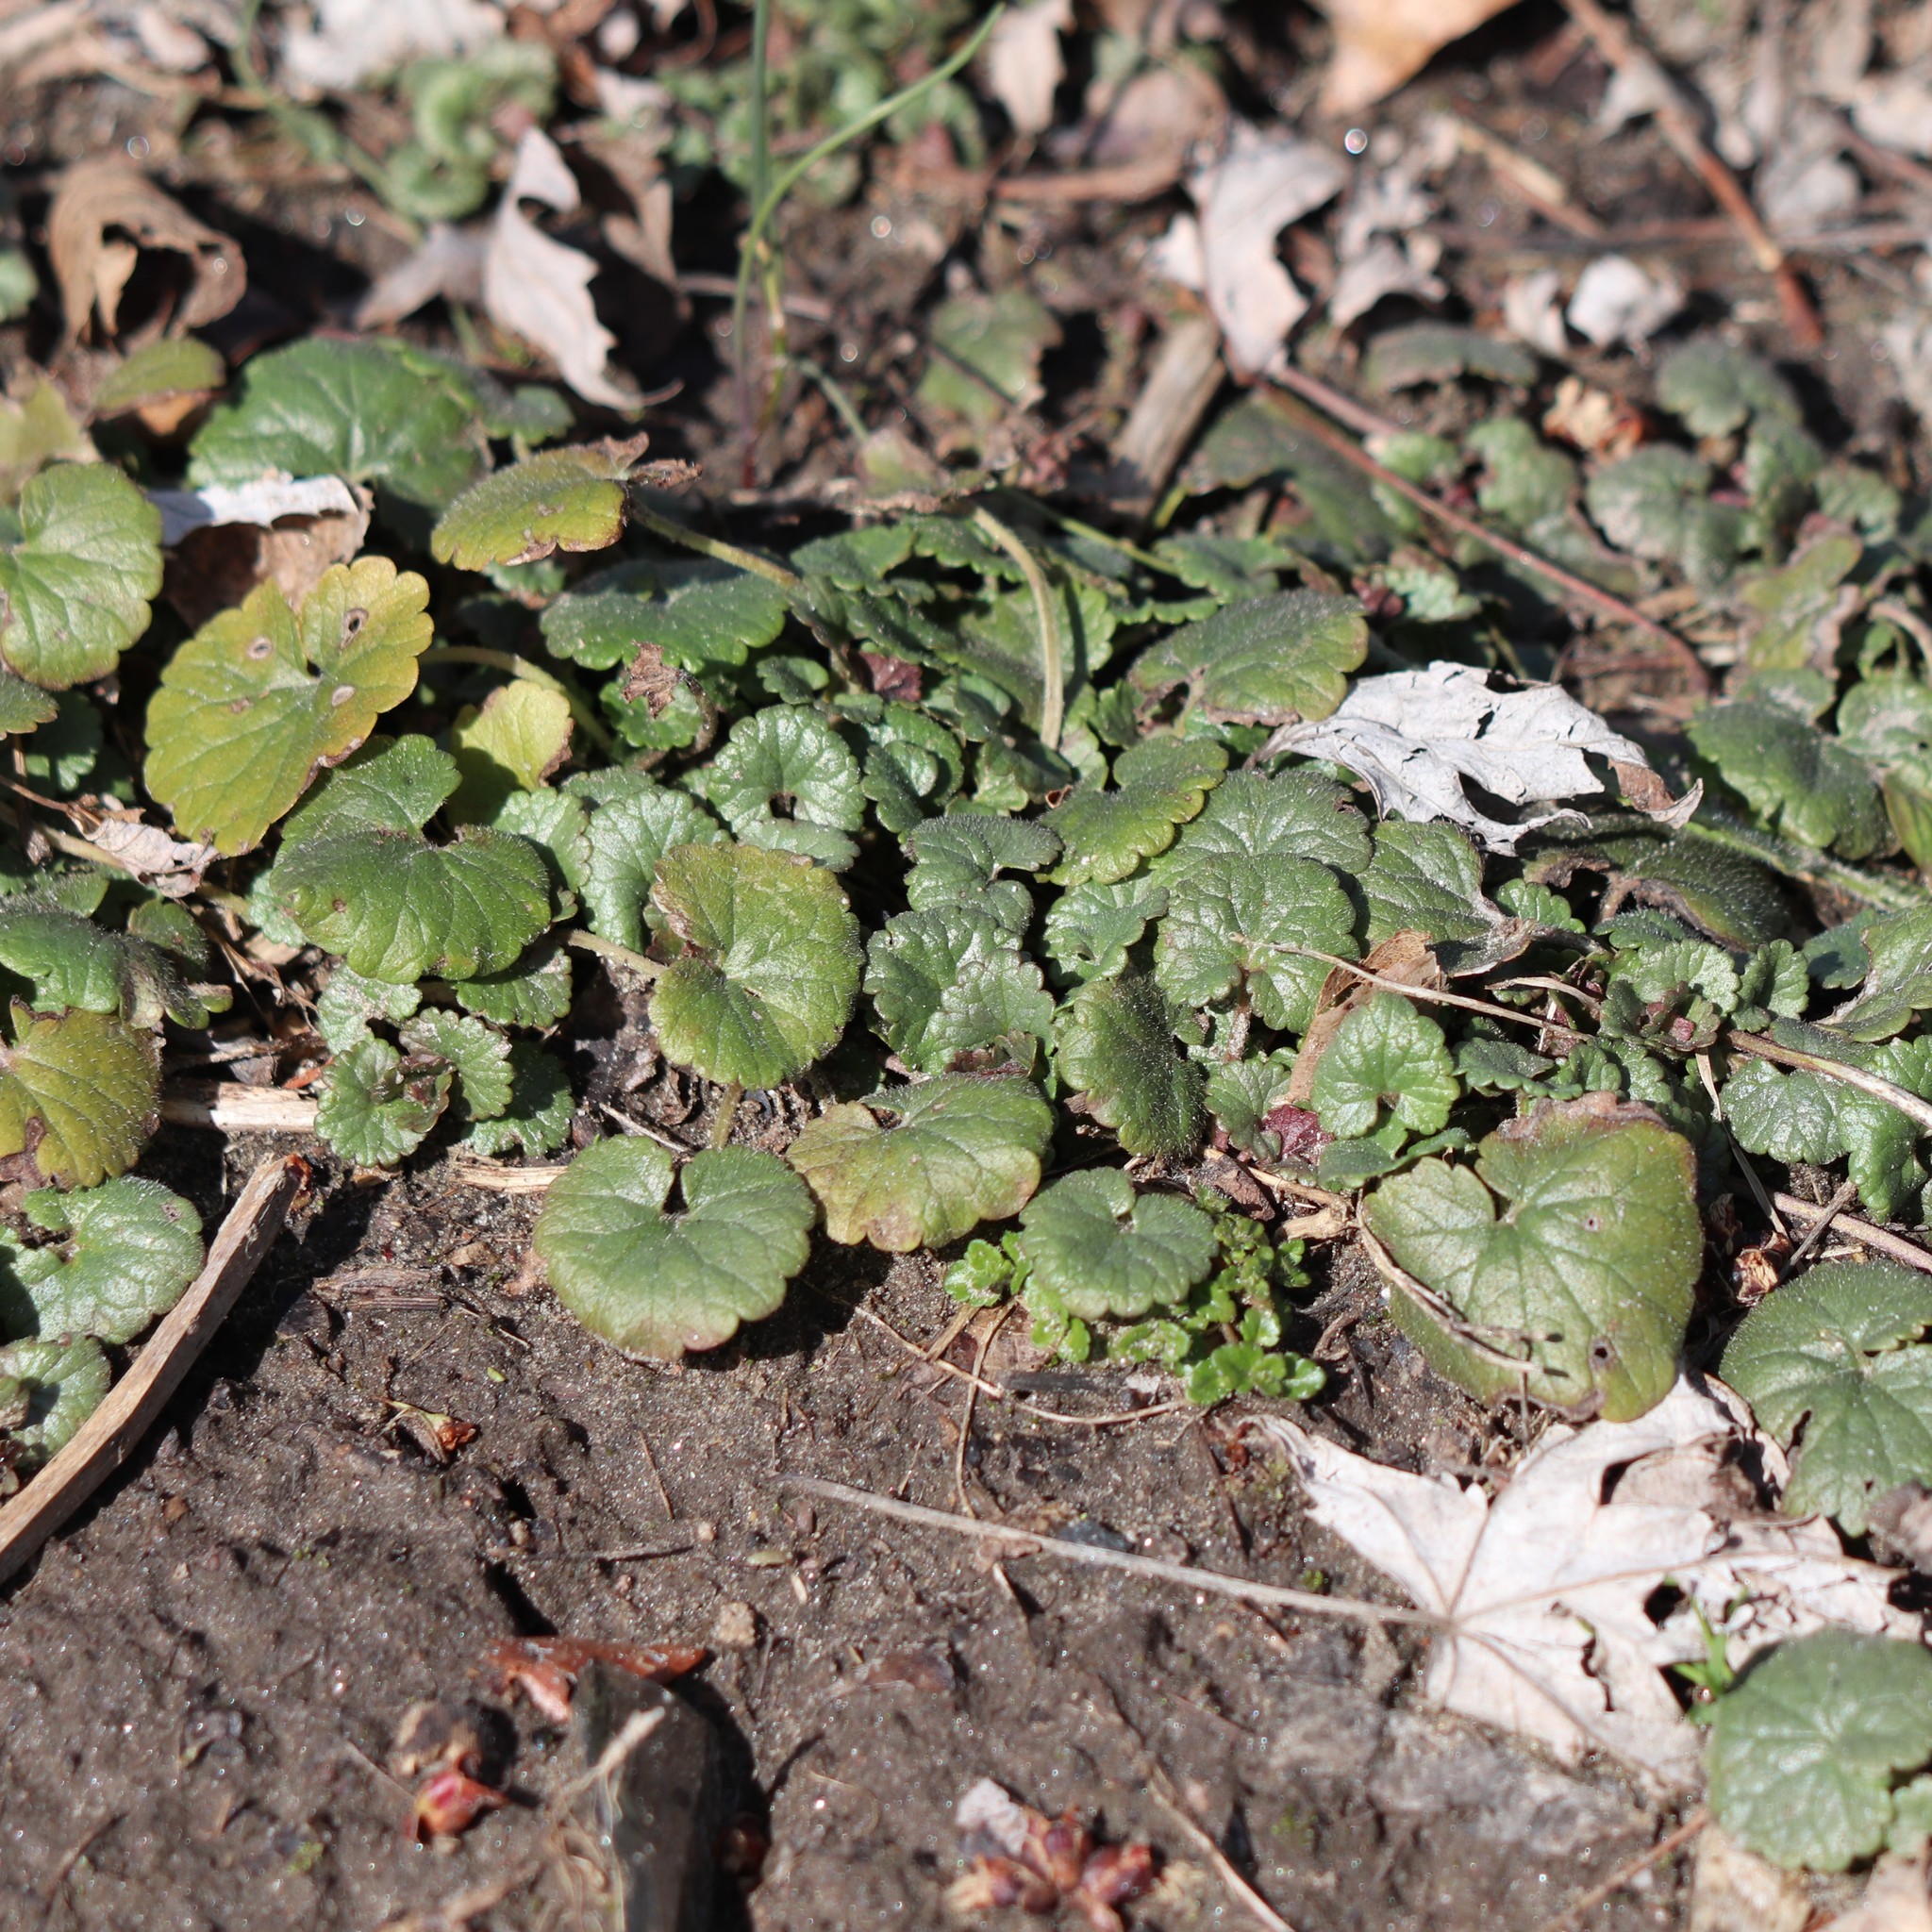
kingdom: Plantae
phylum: Tracheophyta
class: Magnoliopsida
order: Lamiales
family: Lamiaceae
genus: Glechoma
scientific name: Glechoma hederacea
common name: Ground ivy
